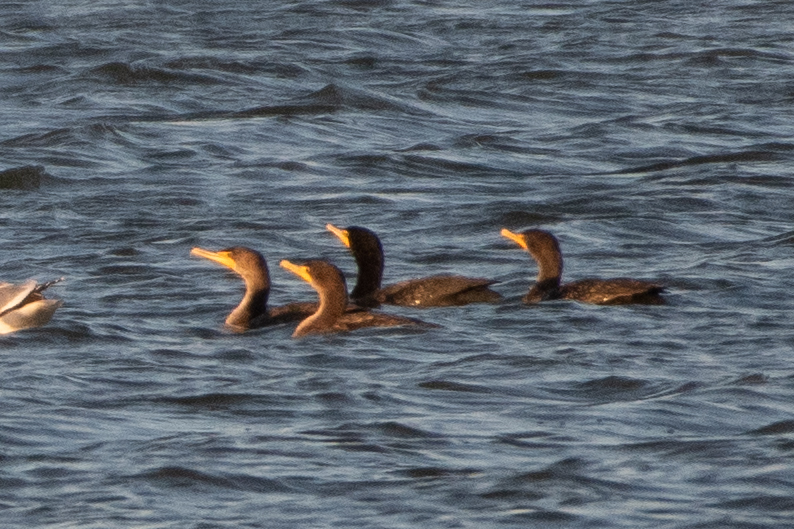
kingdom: Animalia
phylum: Chordata
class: Aves
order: Suliformes
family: Phalacrocoracidae
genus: Phalacrocorax
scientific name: Phalacrocorax auritus
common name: Double-crested cormorant
